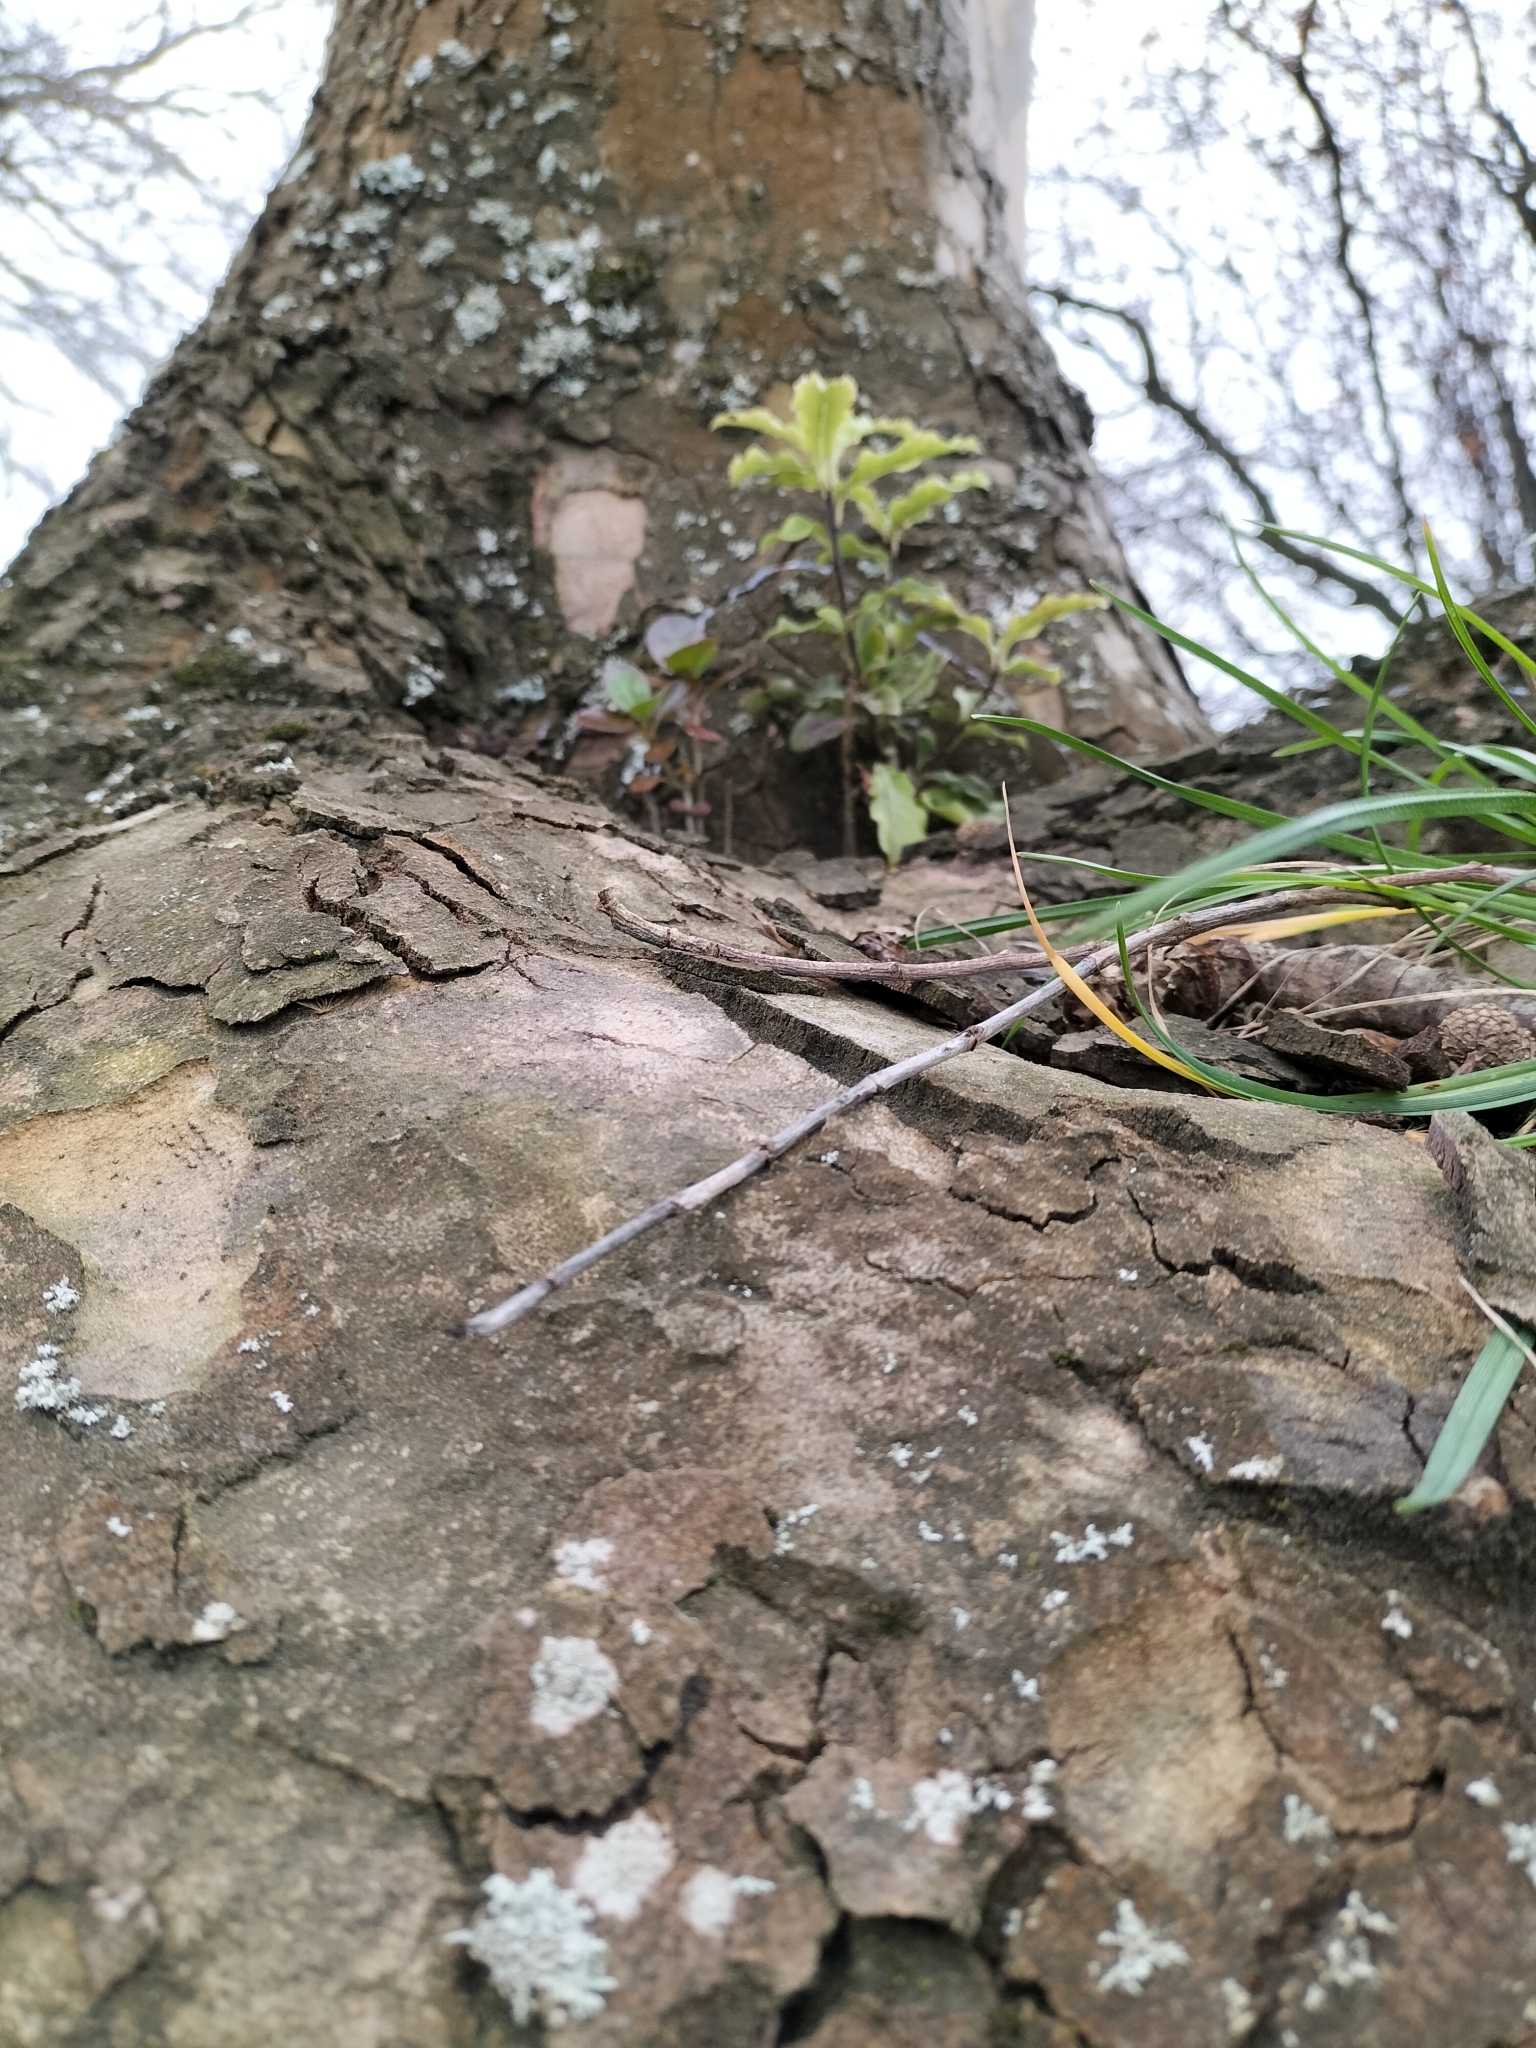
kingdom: Plantae
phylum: Tracheophyta
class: Magnoliopsida
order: Apiales
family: Pittosporaceae
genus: Pittosporum
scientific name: Pittosporum eugenioides
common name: Lemonwood
